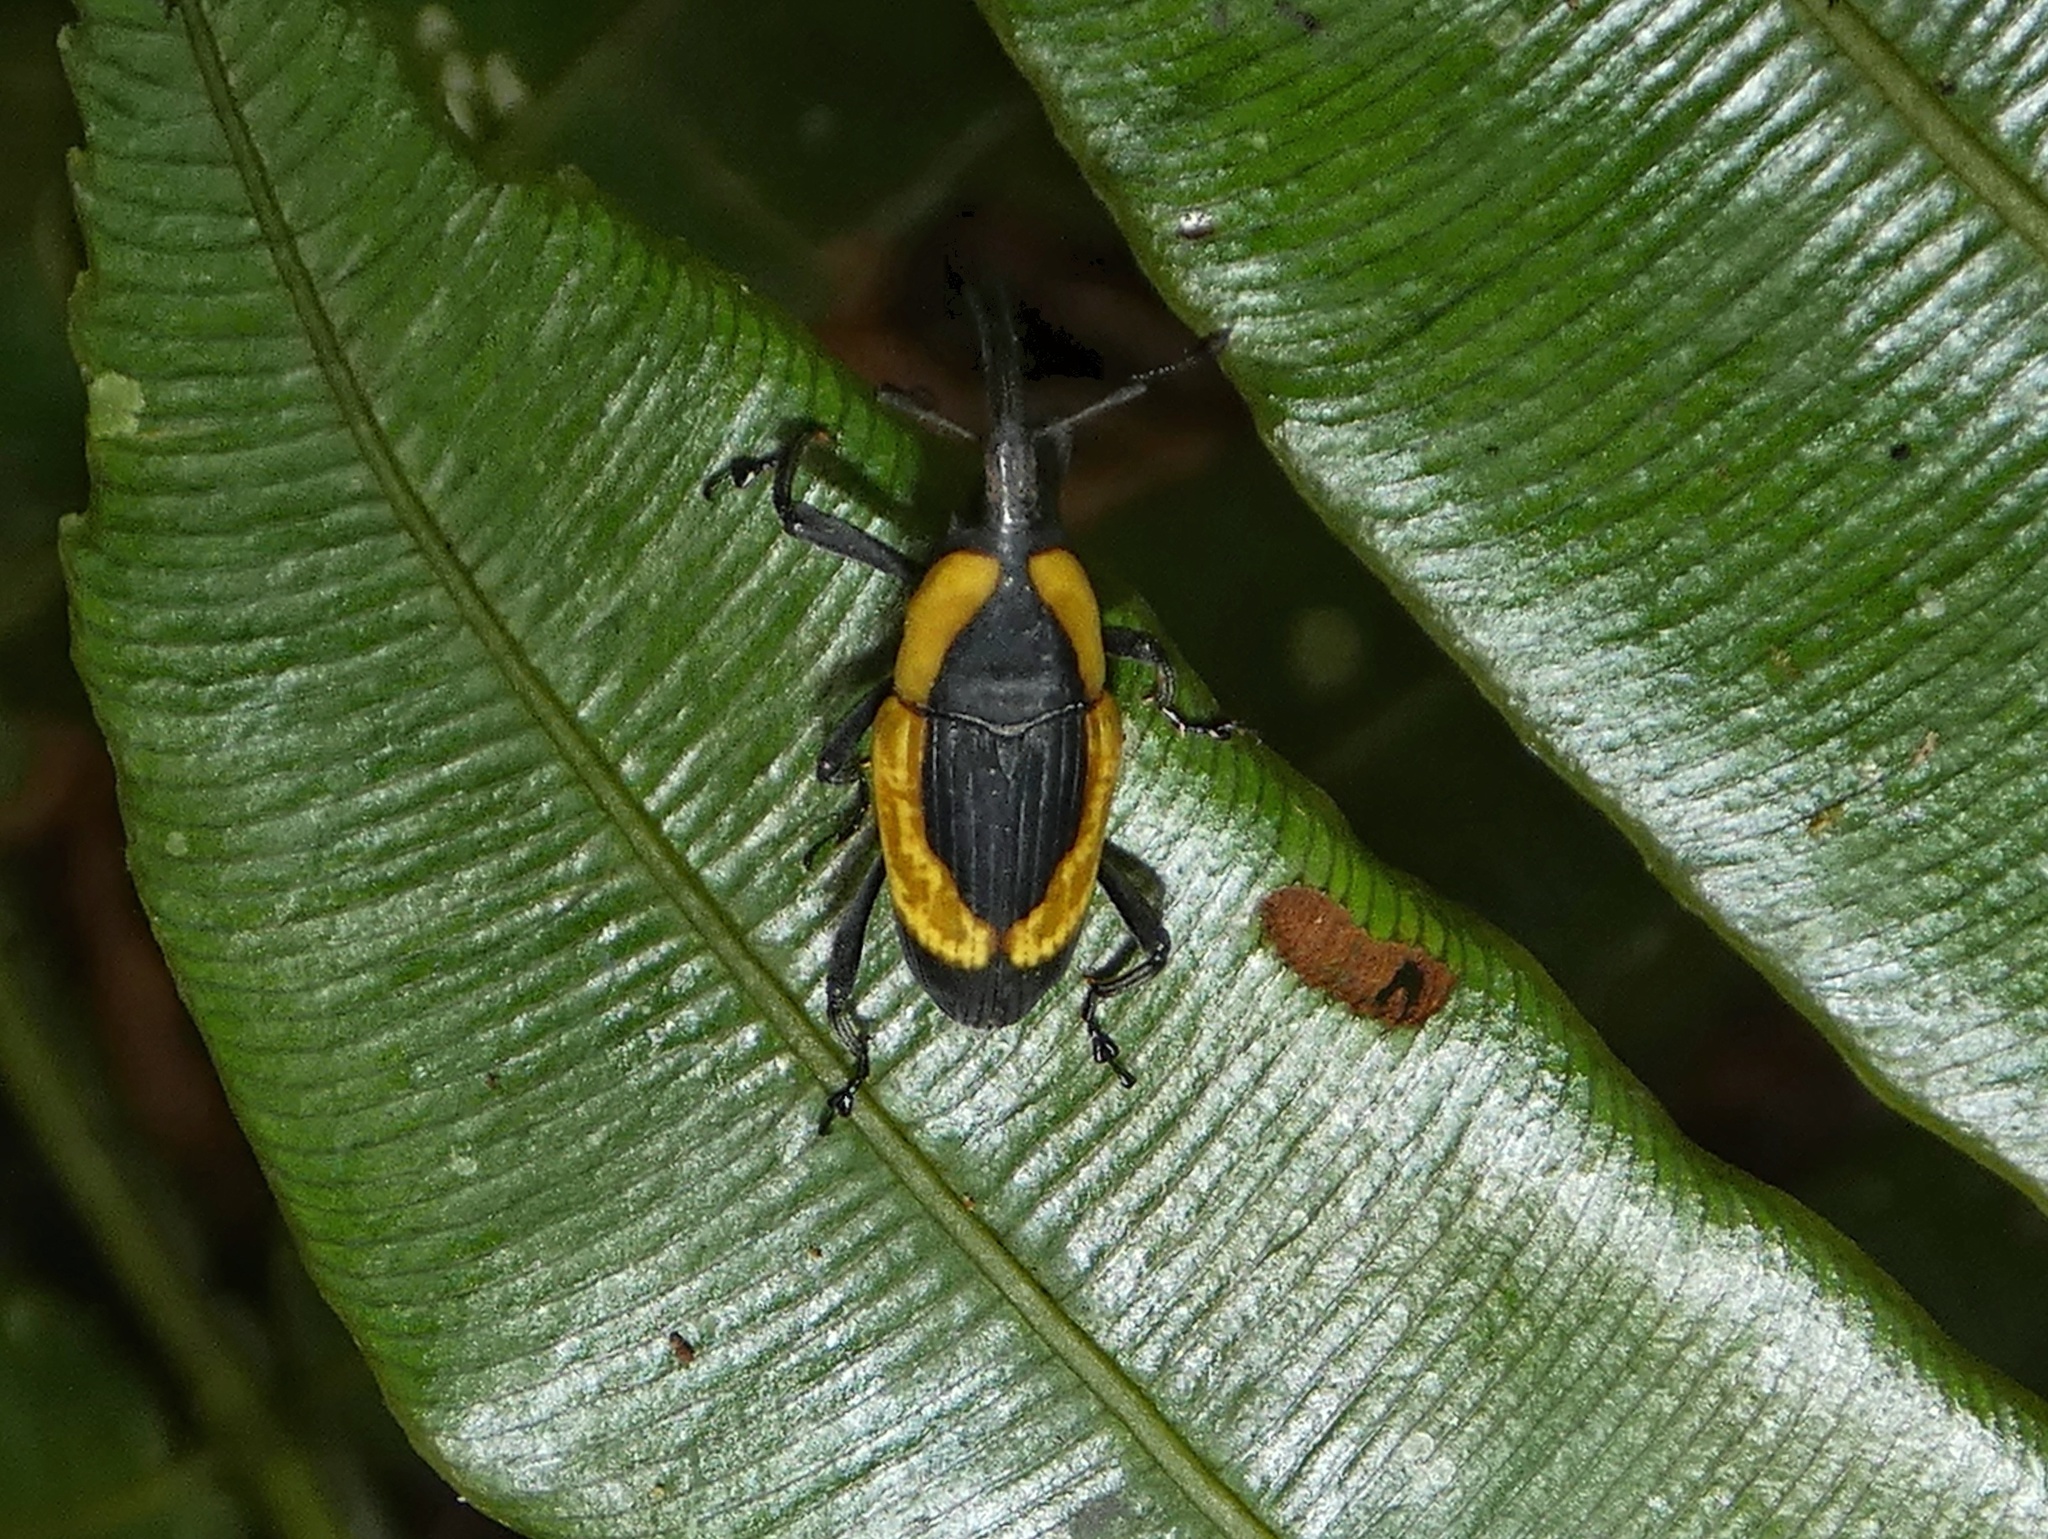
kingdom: Animalia
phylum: Arthropoda
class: Insecta
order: Coleoptera
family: Dryophthoridae
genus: Cactophagus
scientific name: Cactophagus circumdatus
